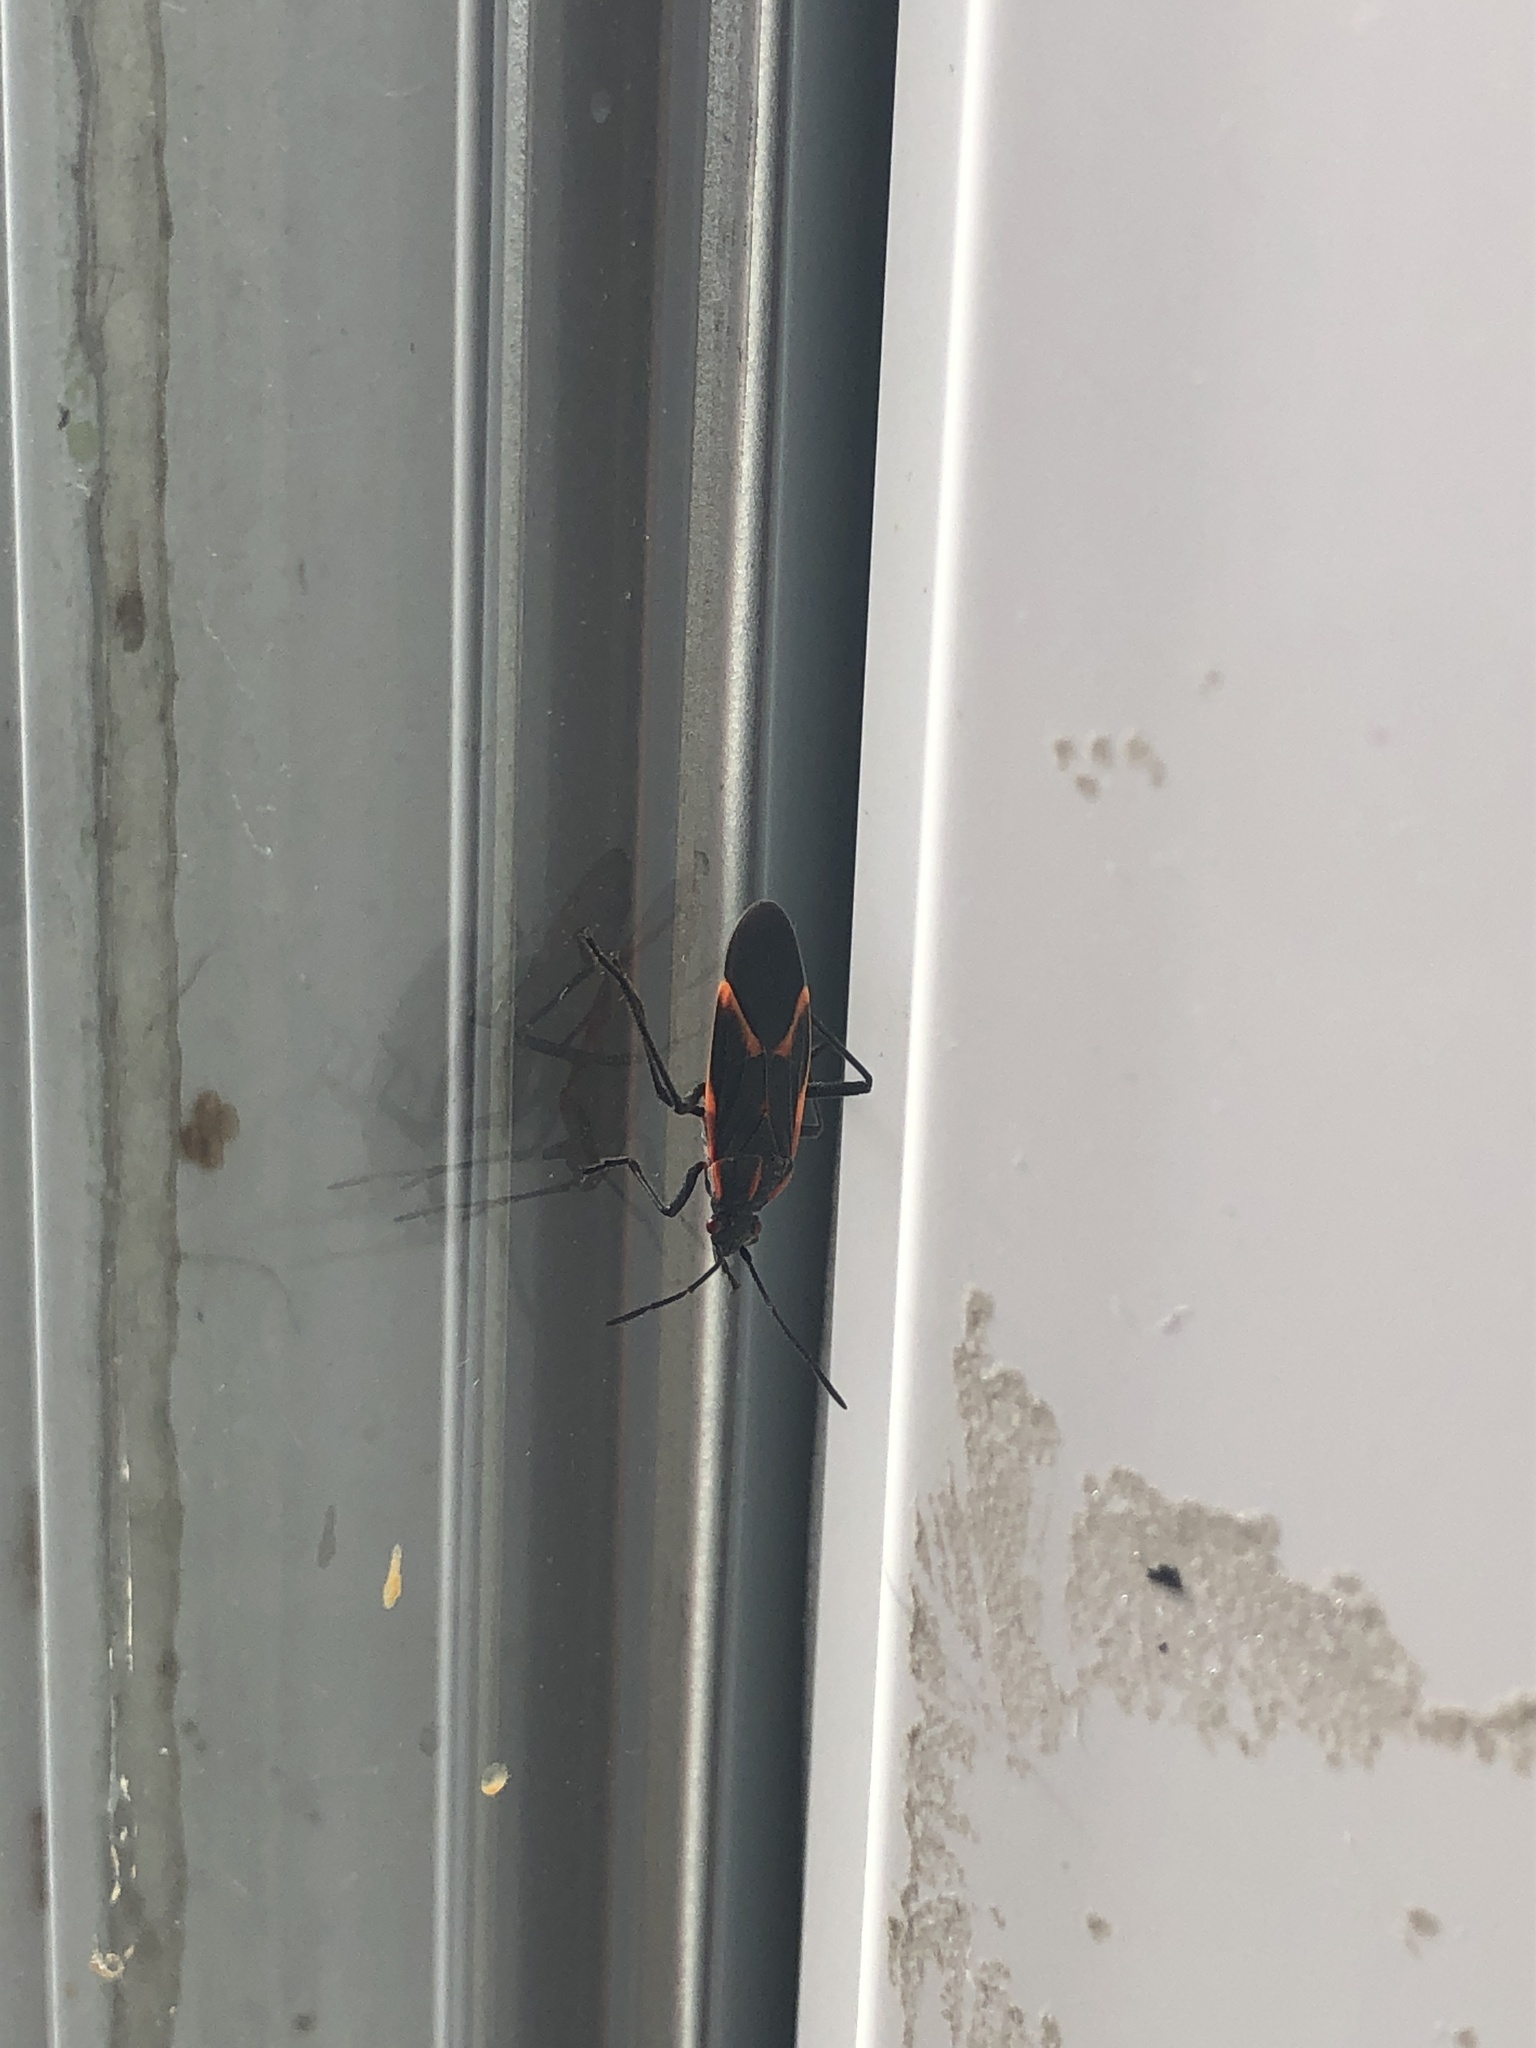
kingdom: Animalia
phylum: Arthropoda
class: Insecta
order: Hemiptera
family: Rhopalidae
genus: Boisea
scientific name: Boisea trivittata
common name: Boxelder bug
